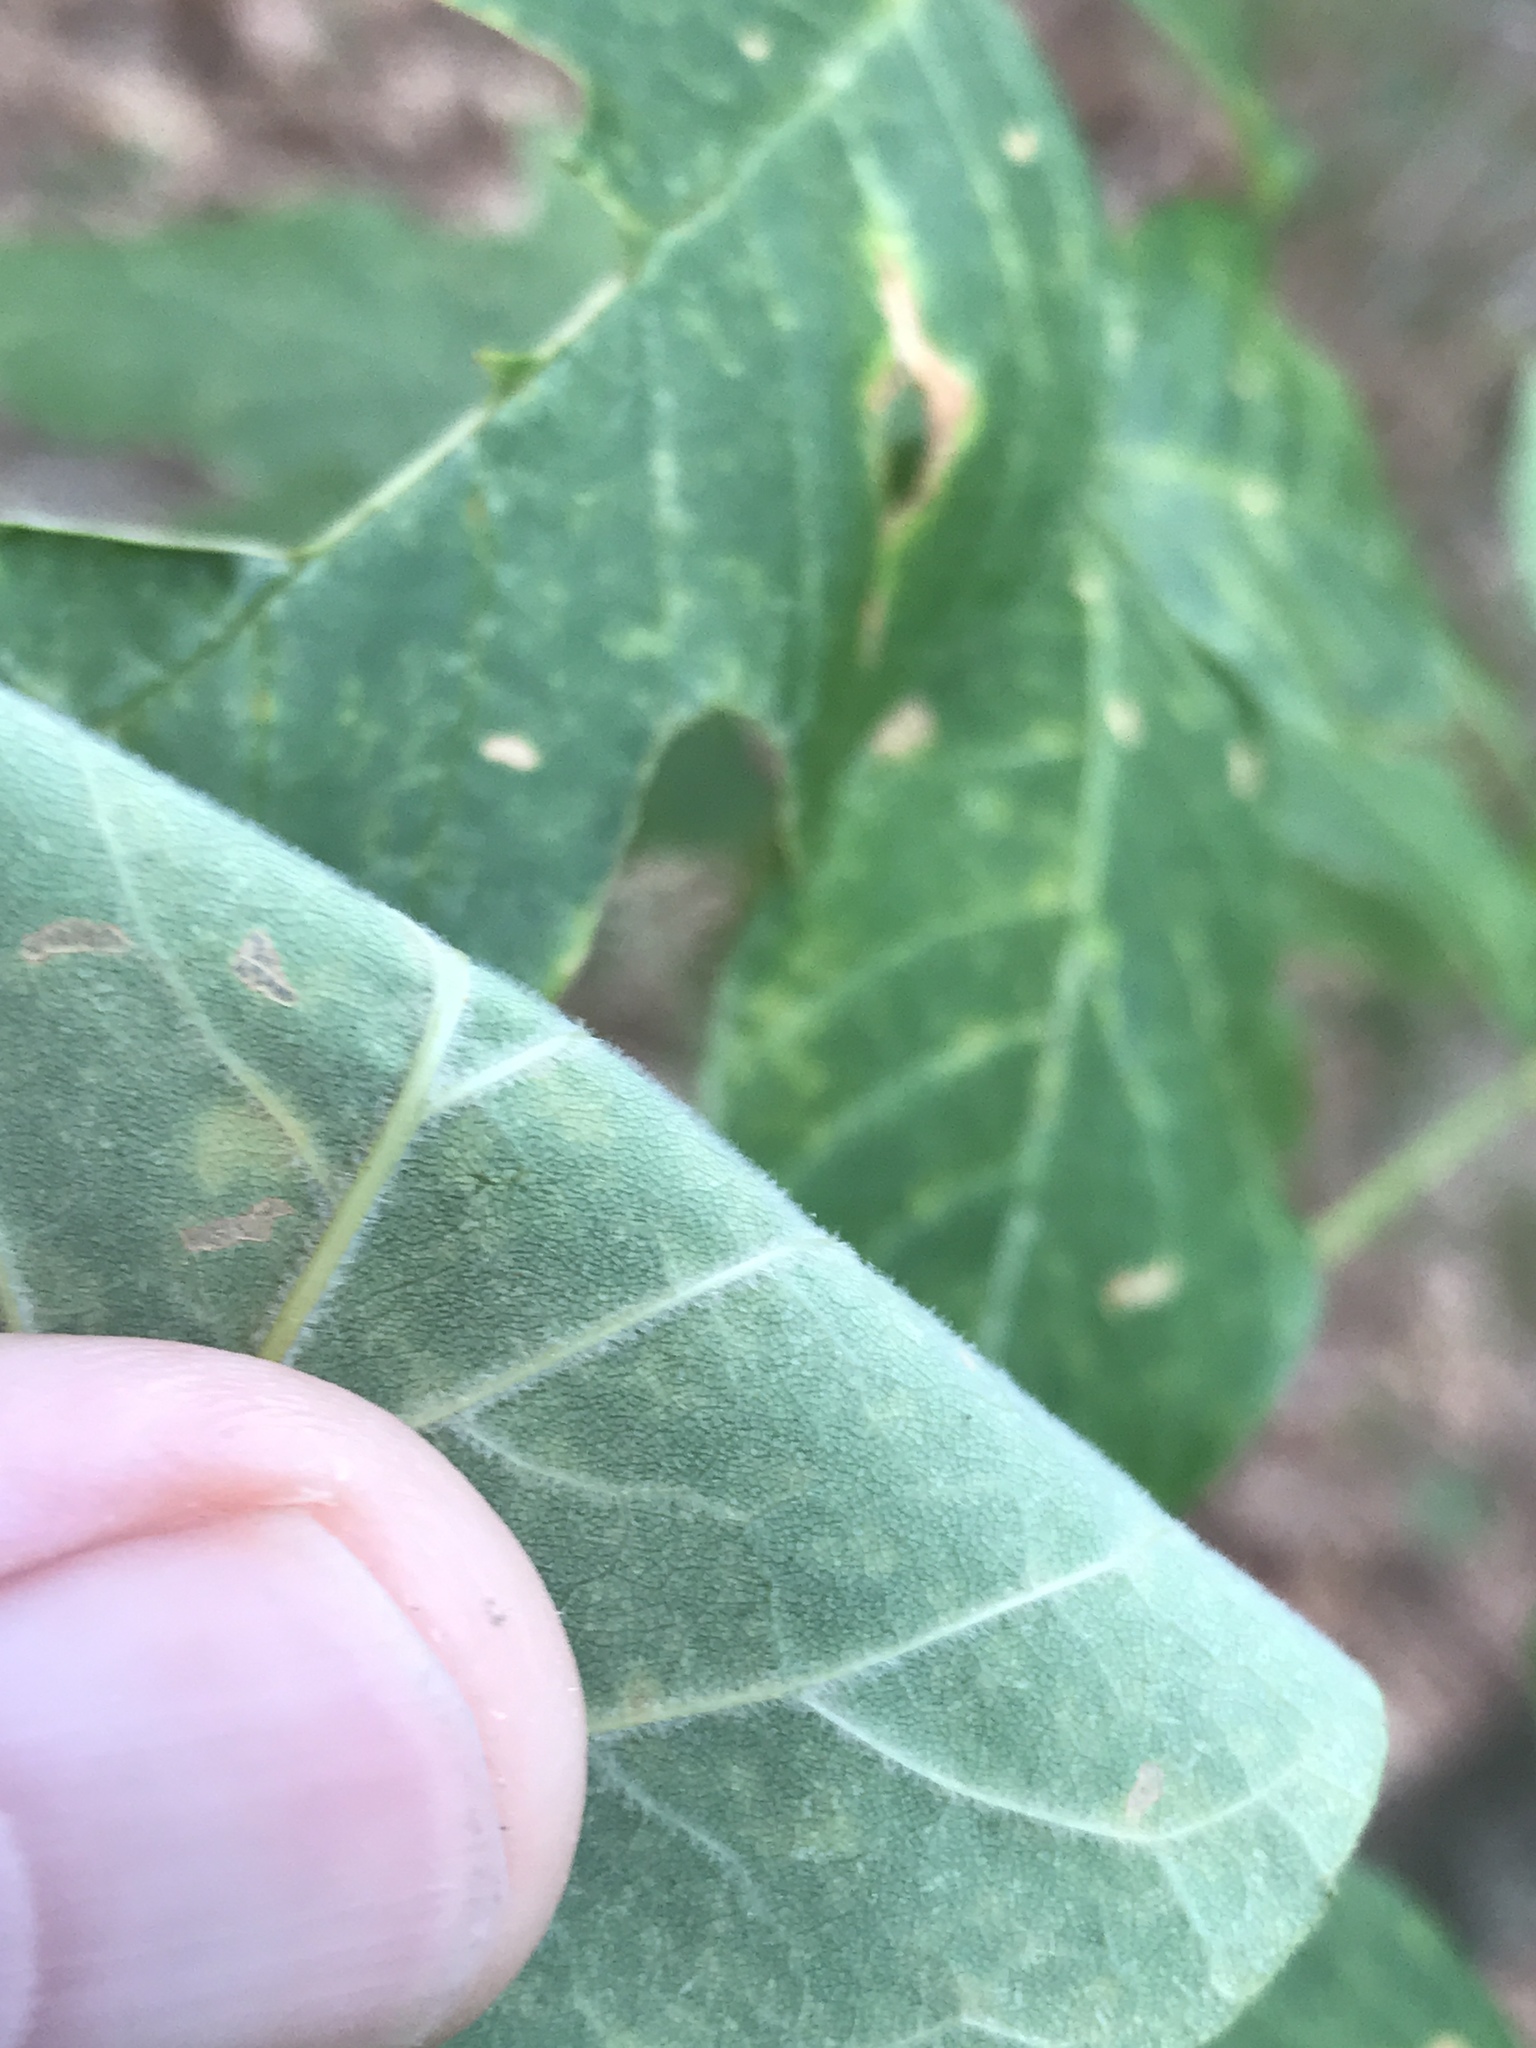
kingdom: Plantae
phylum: Tracheophyta
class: Magnoliopsida
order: Lamiales
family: Oleaceae
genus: Fraxinus
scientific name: Fraxinus americana
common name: White ash
